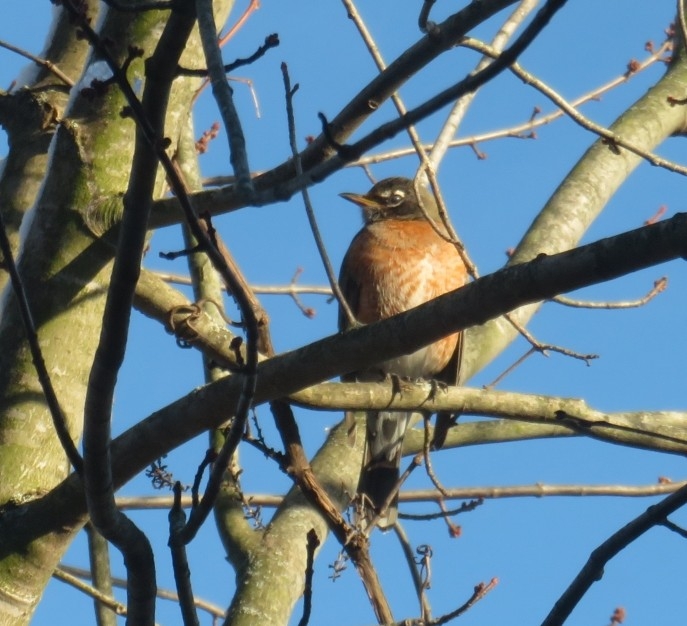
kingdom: Animalia
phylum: Chordata
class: Aves
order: Passeriformes
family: Turdidae
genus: Turdus
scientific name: Turdus migratorius
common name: American robin
